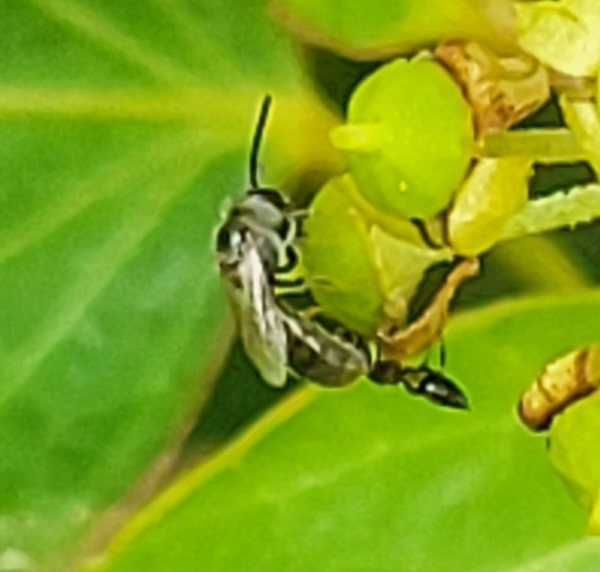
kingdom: Animalia
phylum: Arthropoda
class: Insecta
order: Hymenoptera
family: Halictidae
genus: Dialictus
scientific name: Dialictus
